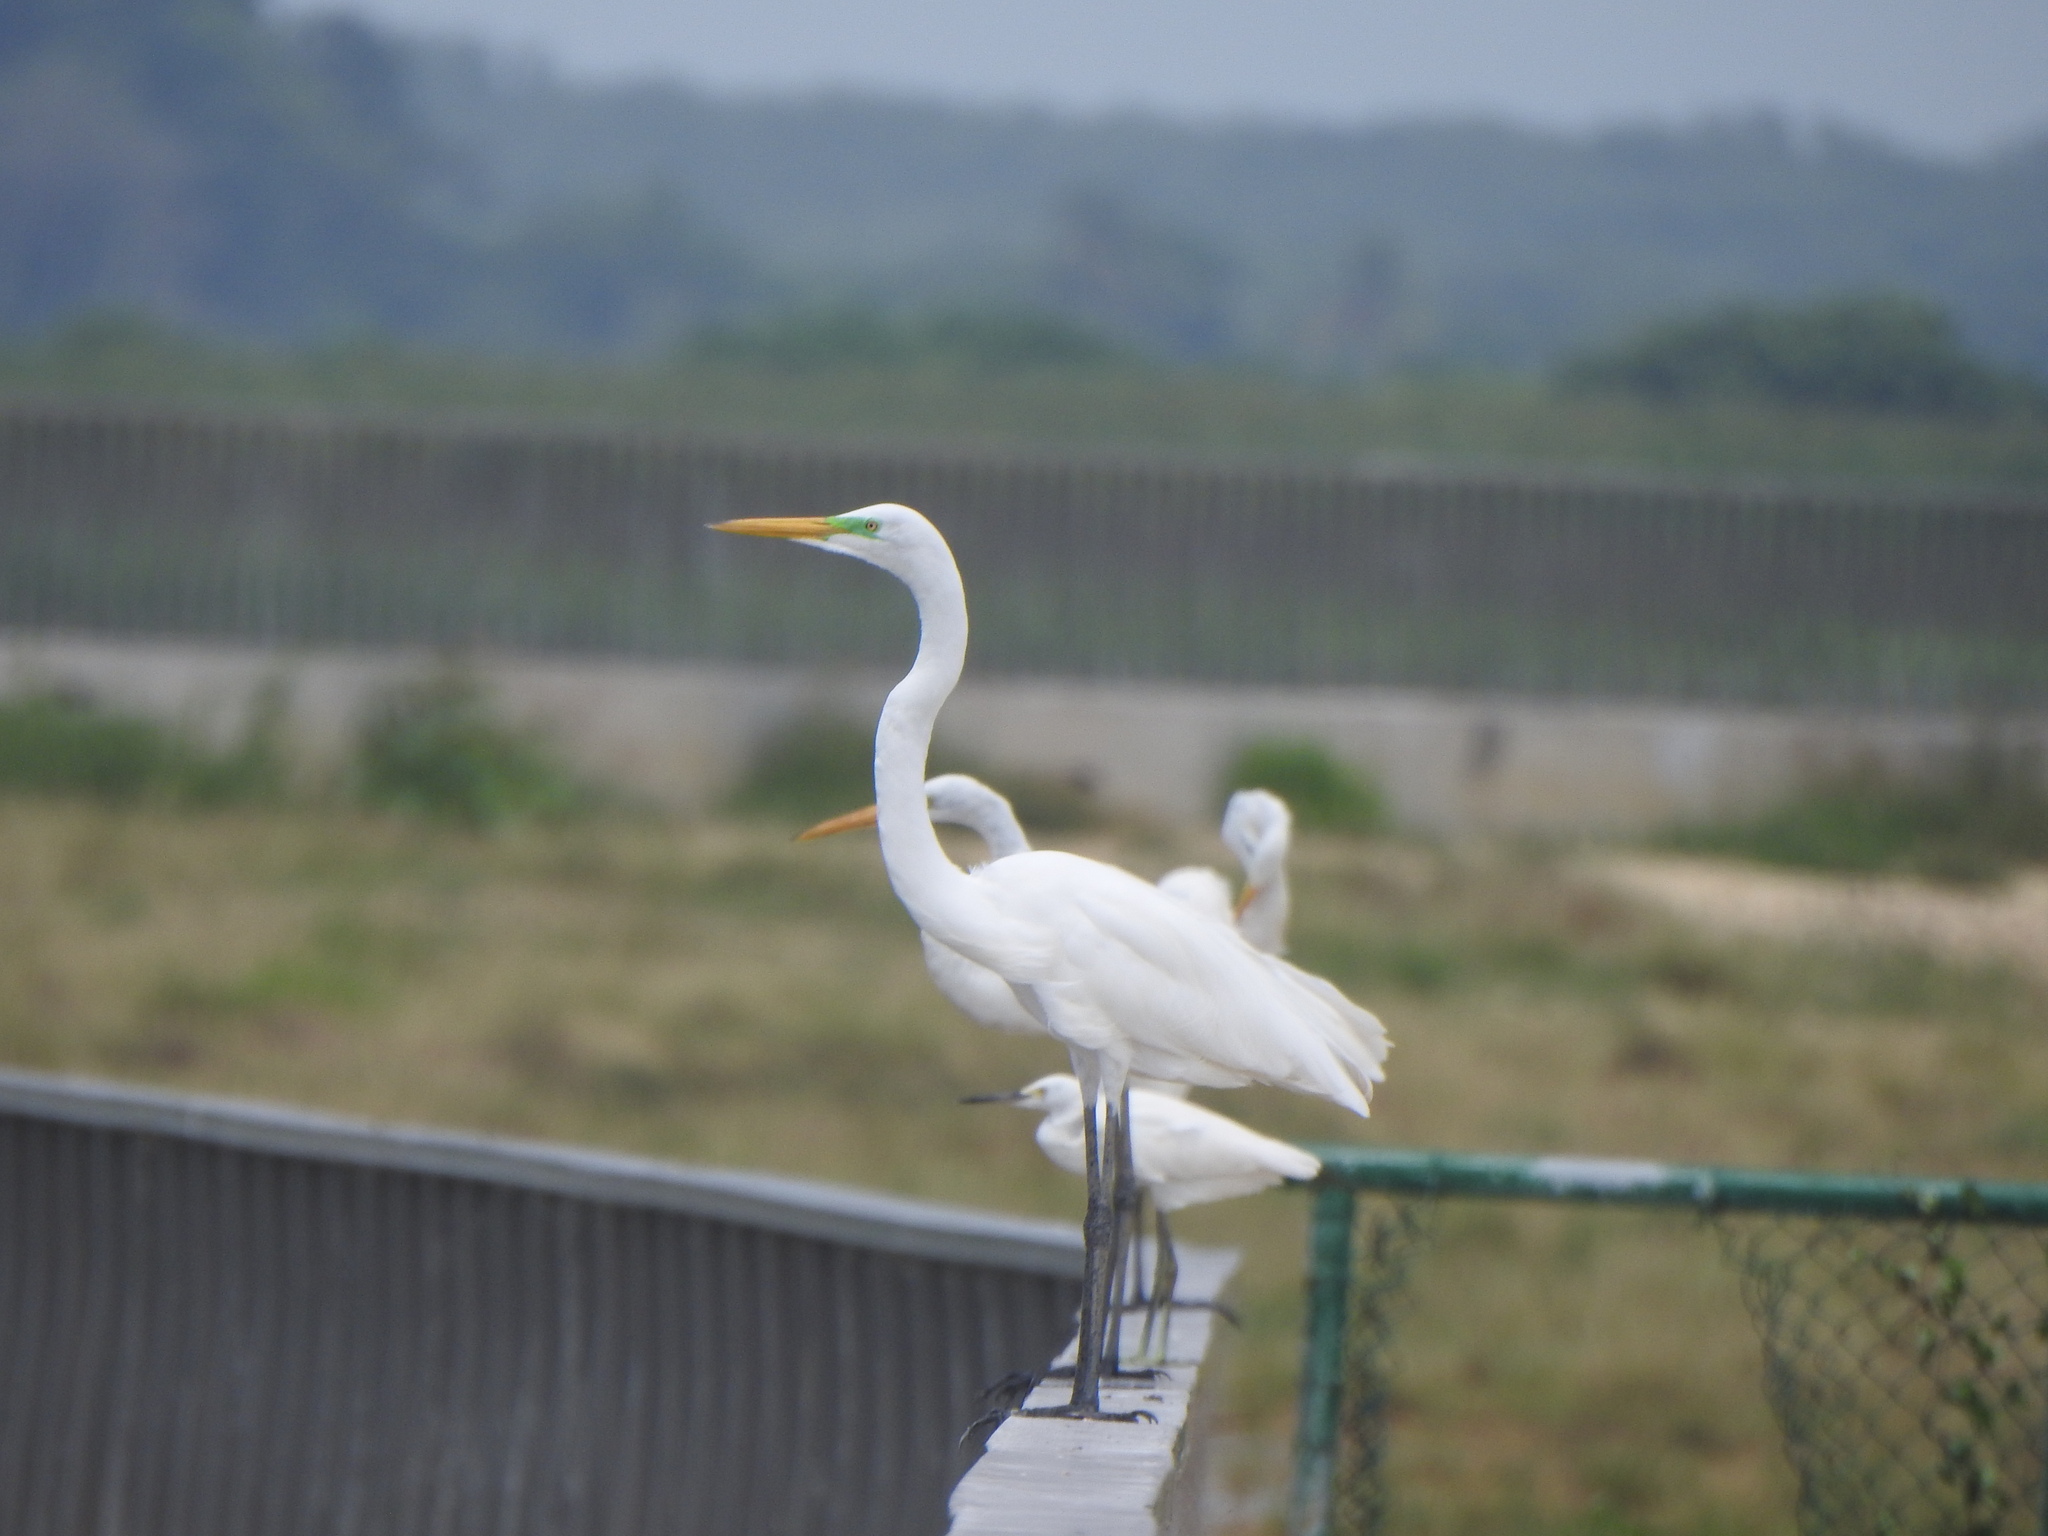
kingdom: Animalia
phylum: Chordata
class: Aves
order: Pelecaniformes
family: Ardeidae
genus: Ardea
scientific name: Ardea alba
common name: Great egret
